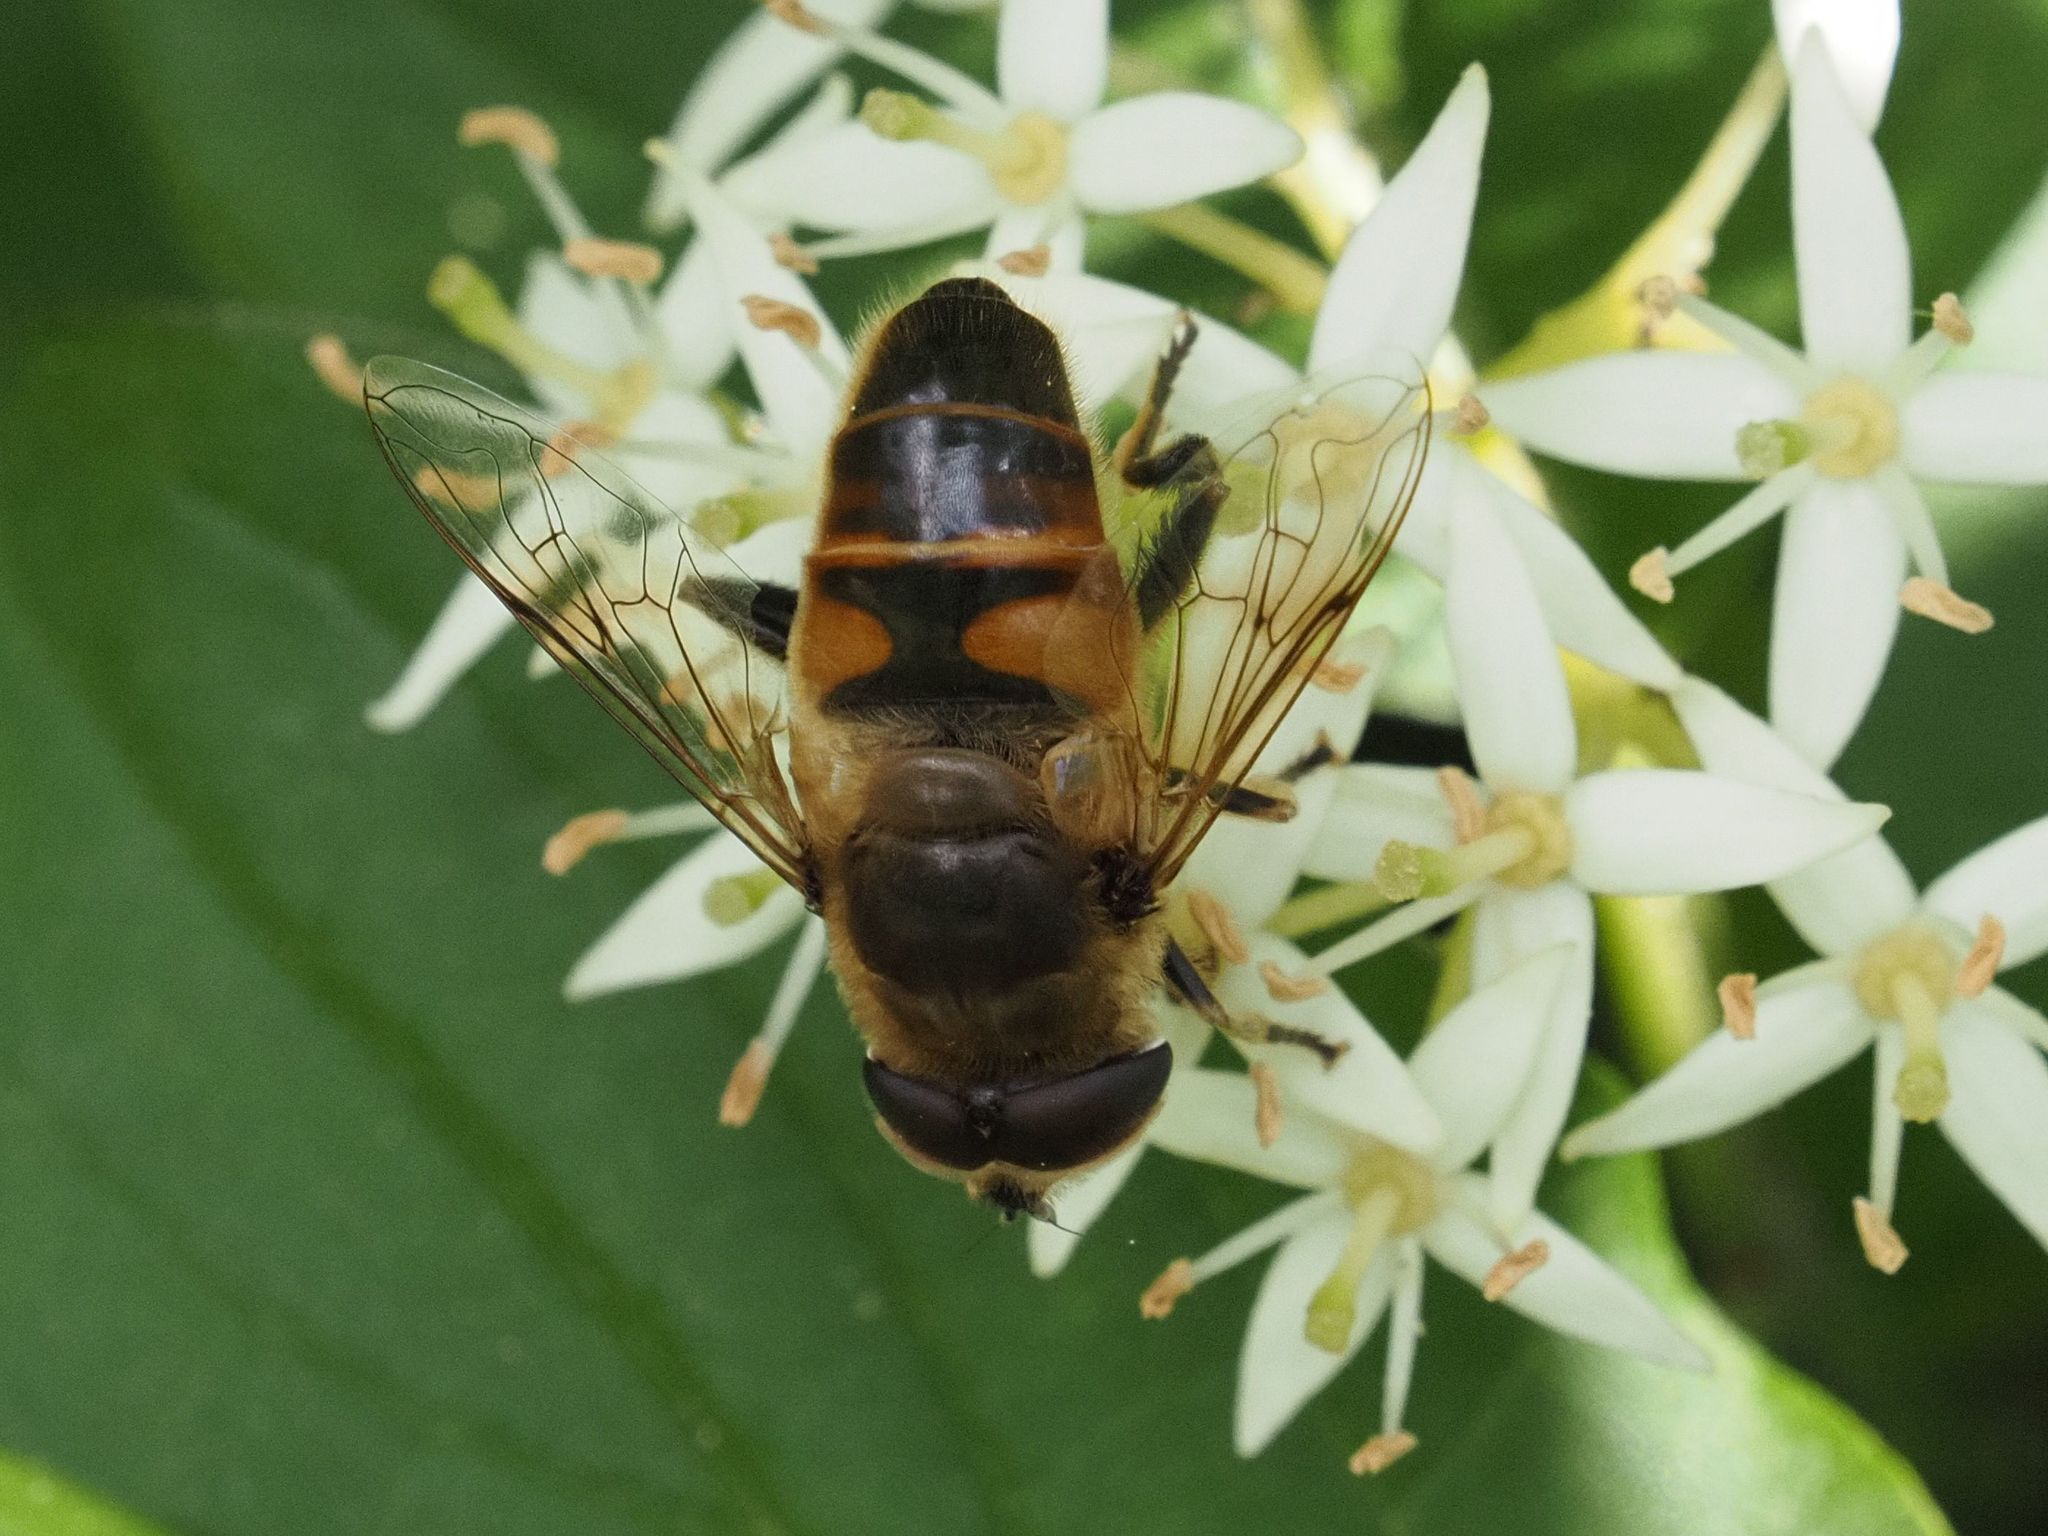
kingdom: Animalia
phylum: Arthropoda
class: Insecta
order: Diptera
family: Syrphidae
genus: Eristalis
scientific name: Eristalis tenax
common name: Drone fly
